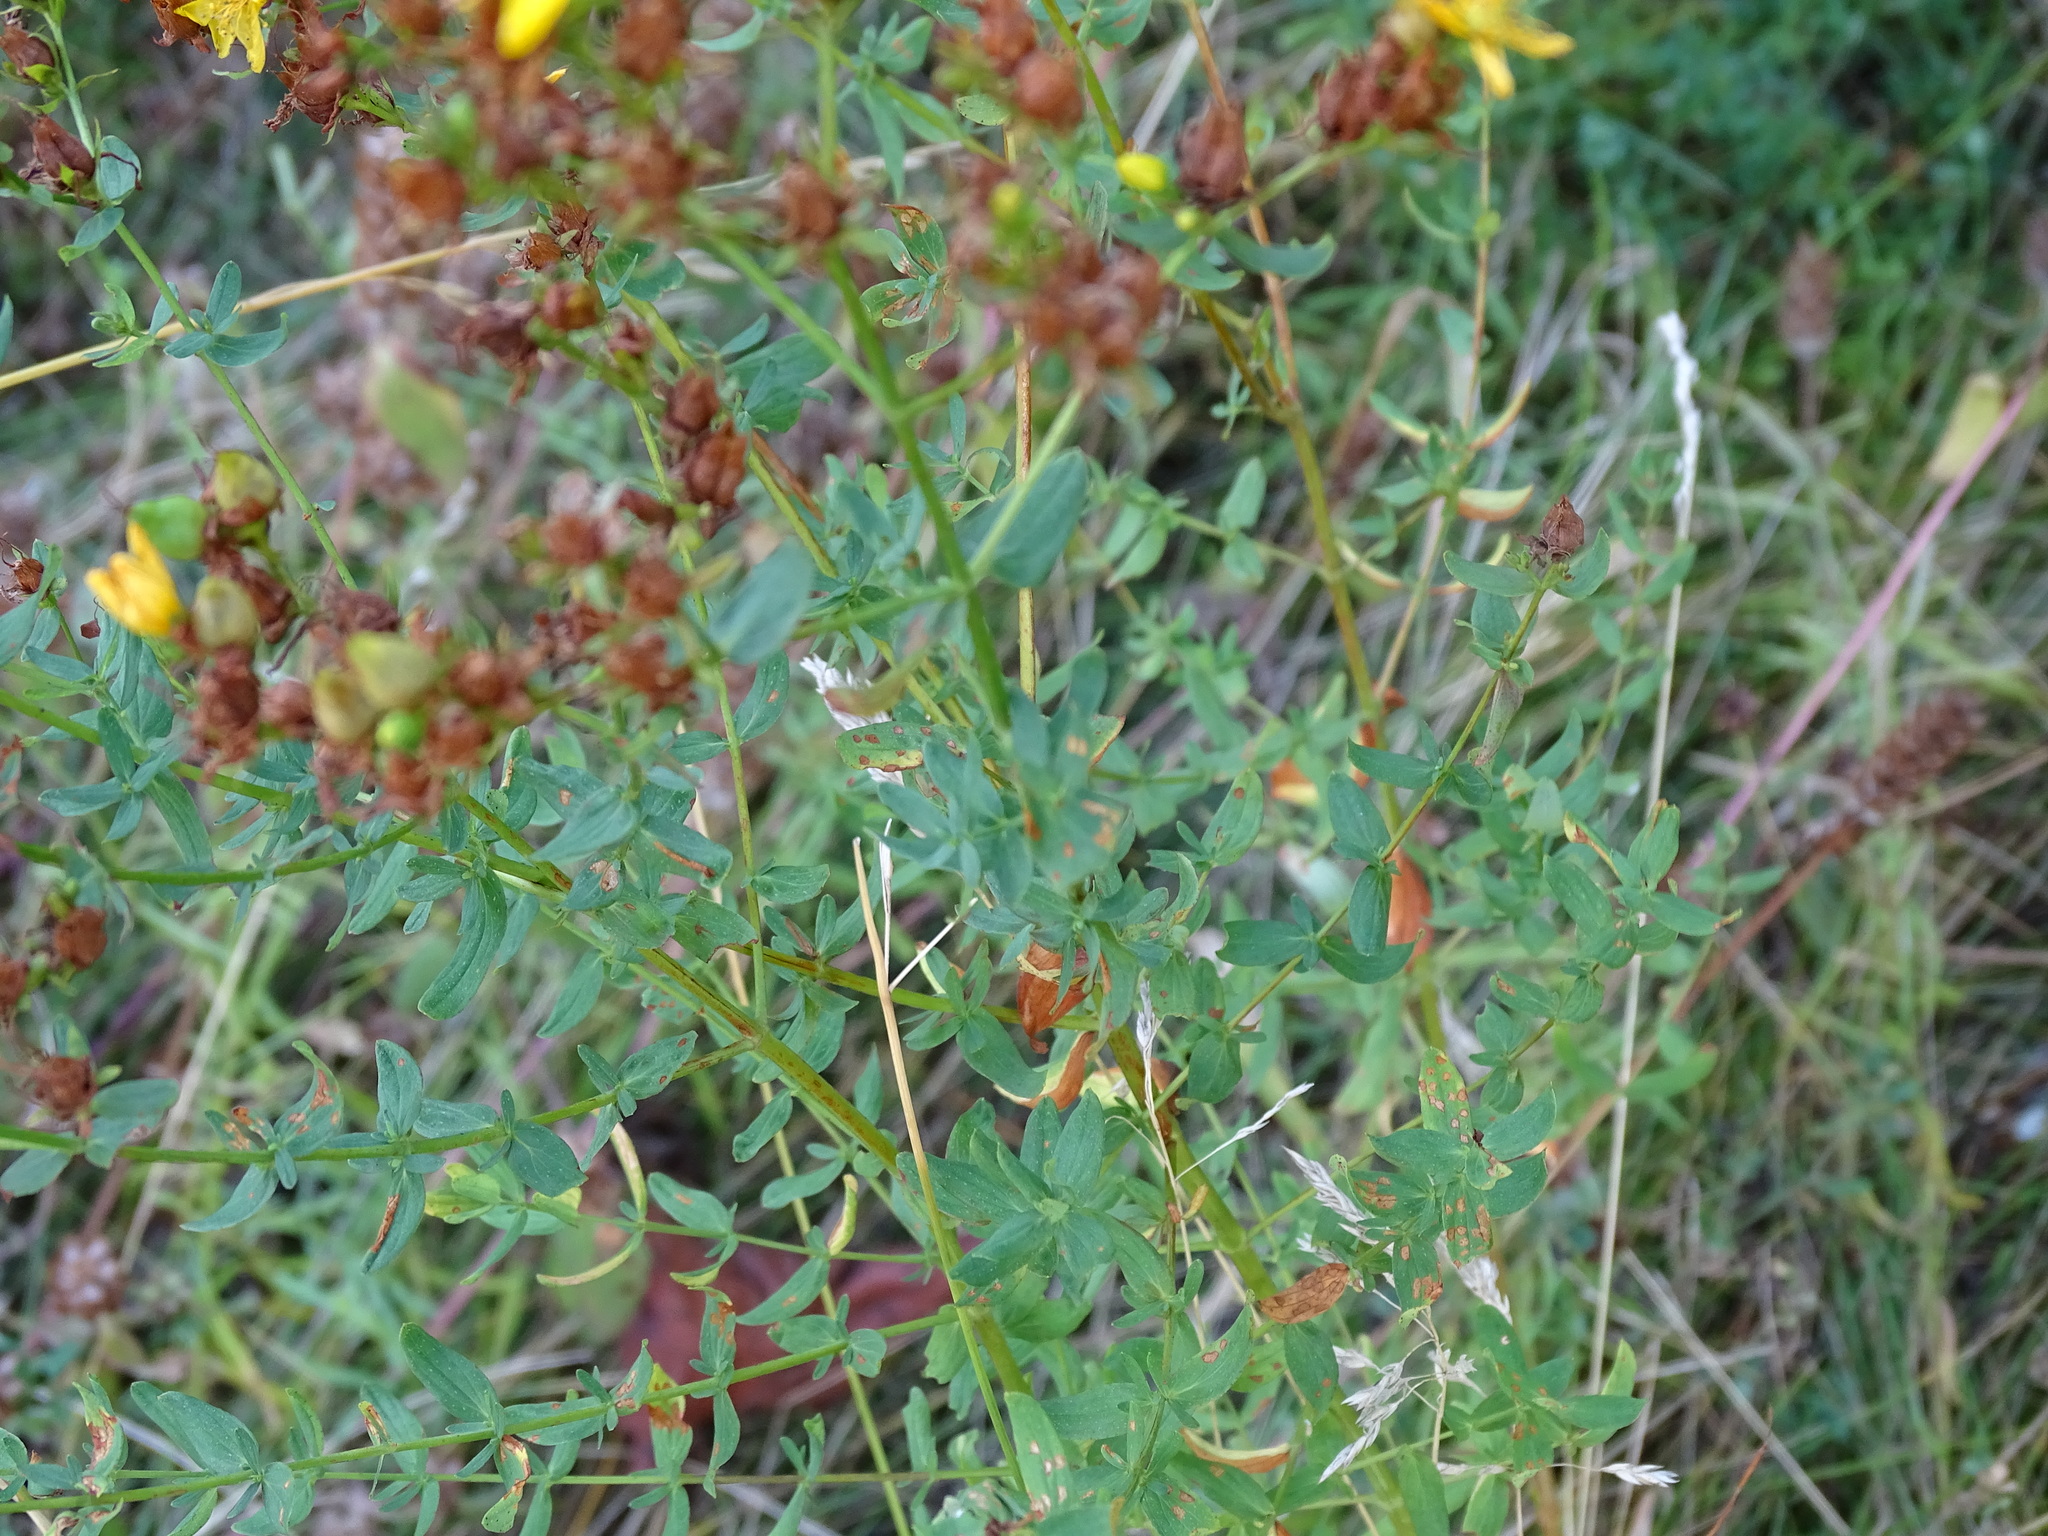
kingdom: Plantae
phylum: Tracheophyta
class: Magnoliopsida
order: Malpighiales
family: Hypericaceae
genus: Hypericum
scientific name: Hypericum perforatum
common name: Common st. johnswort
